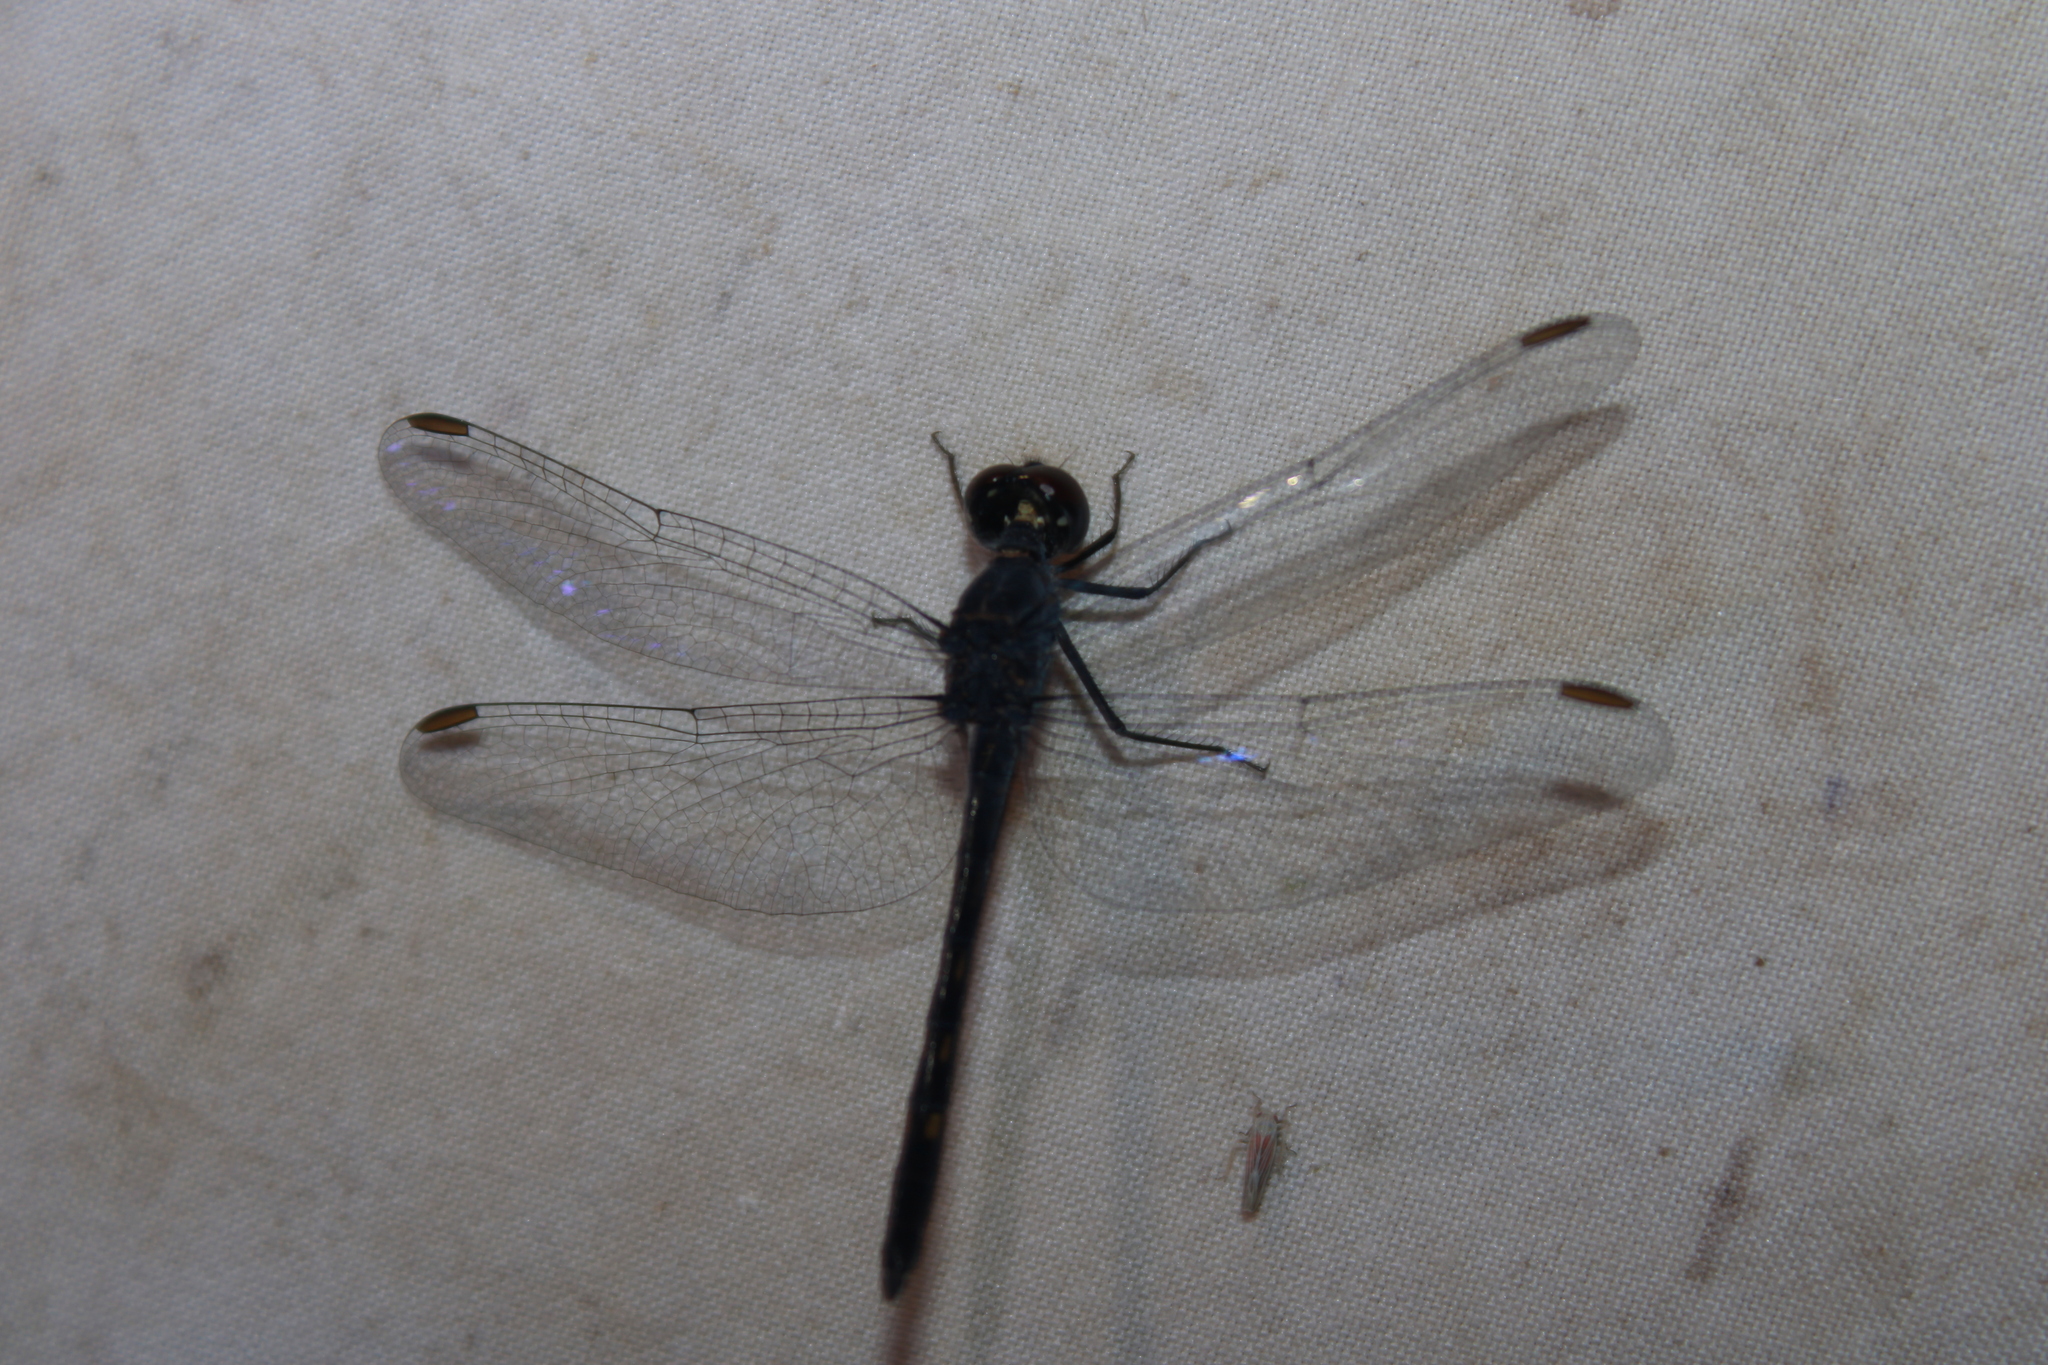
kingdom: Animalia
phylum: Arthropoda
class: Insecta
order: Odonata
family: Libellulidae
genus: Erythrodiplax
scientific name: Erythrodiplax berenice
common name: Seaside dragonlet
